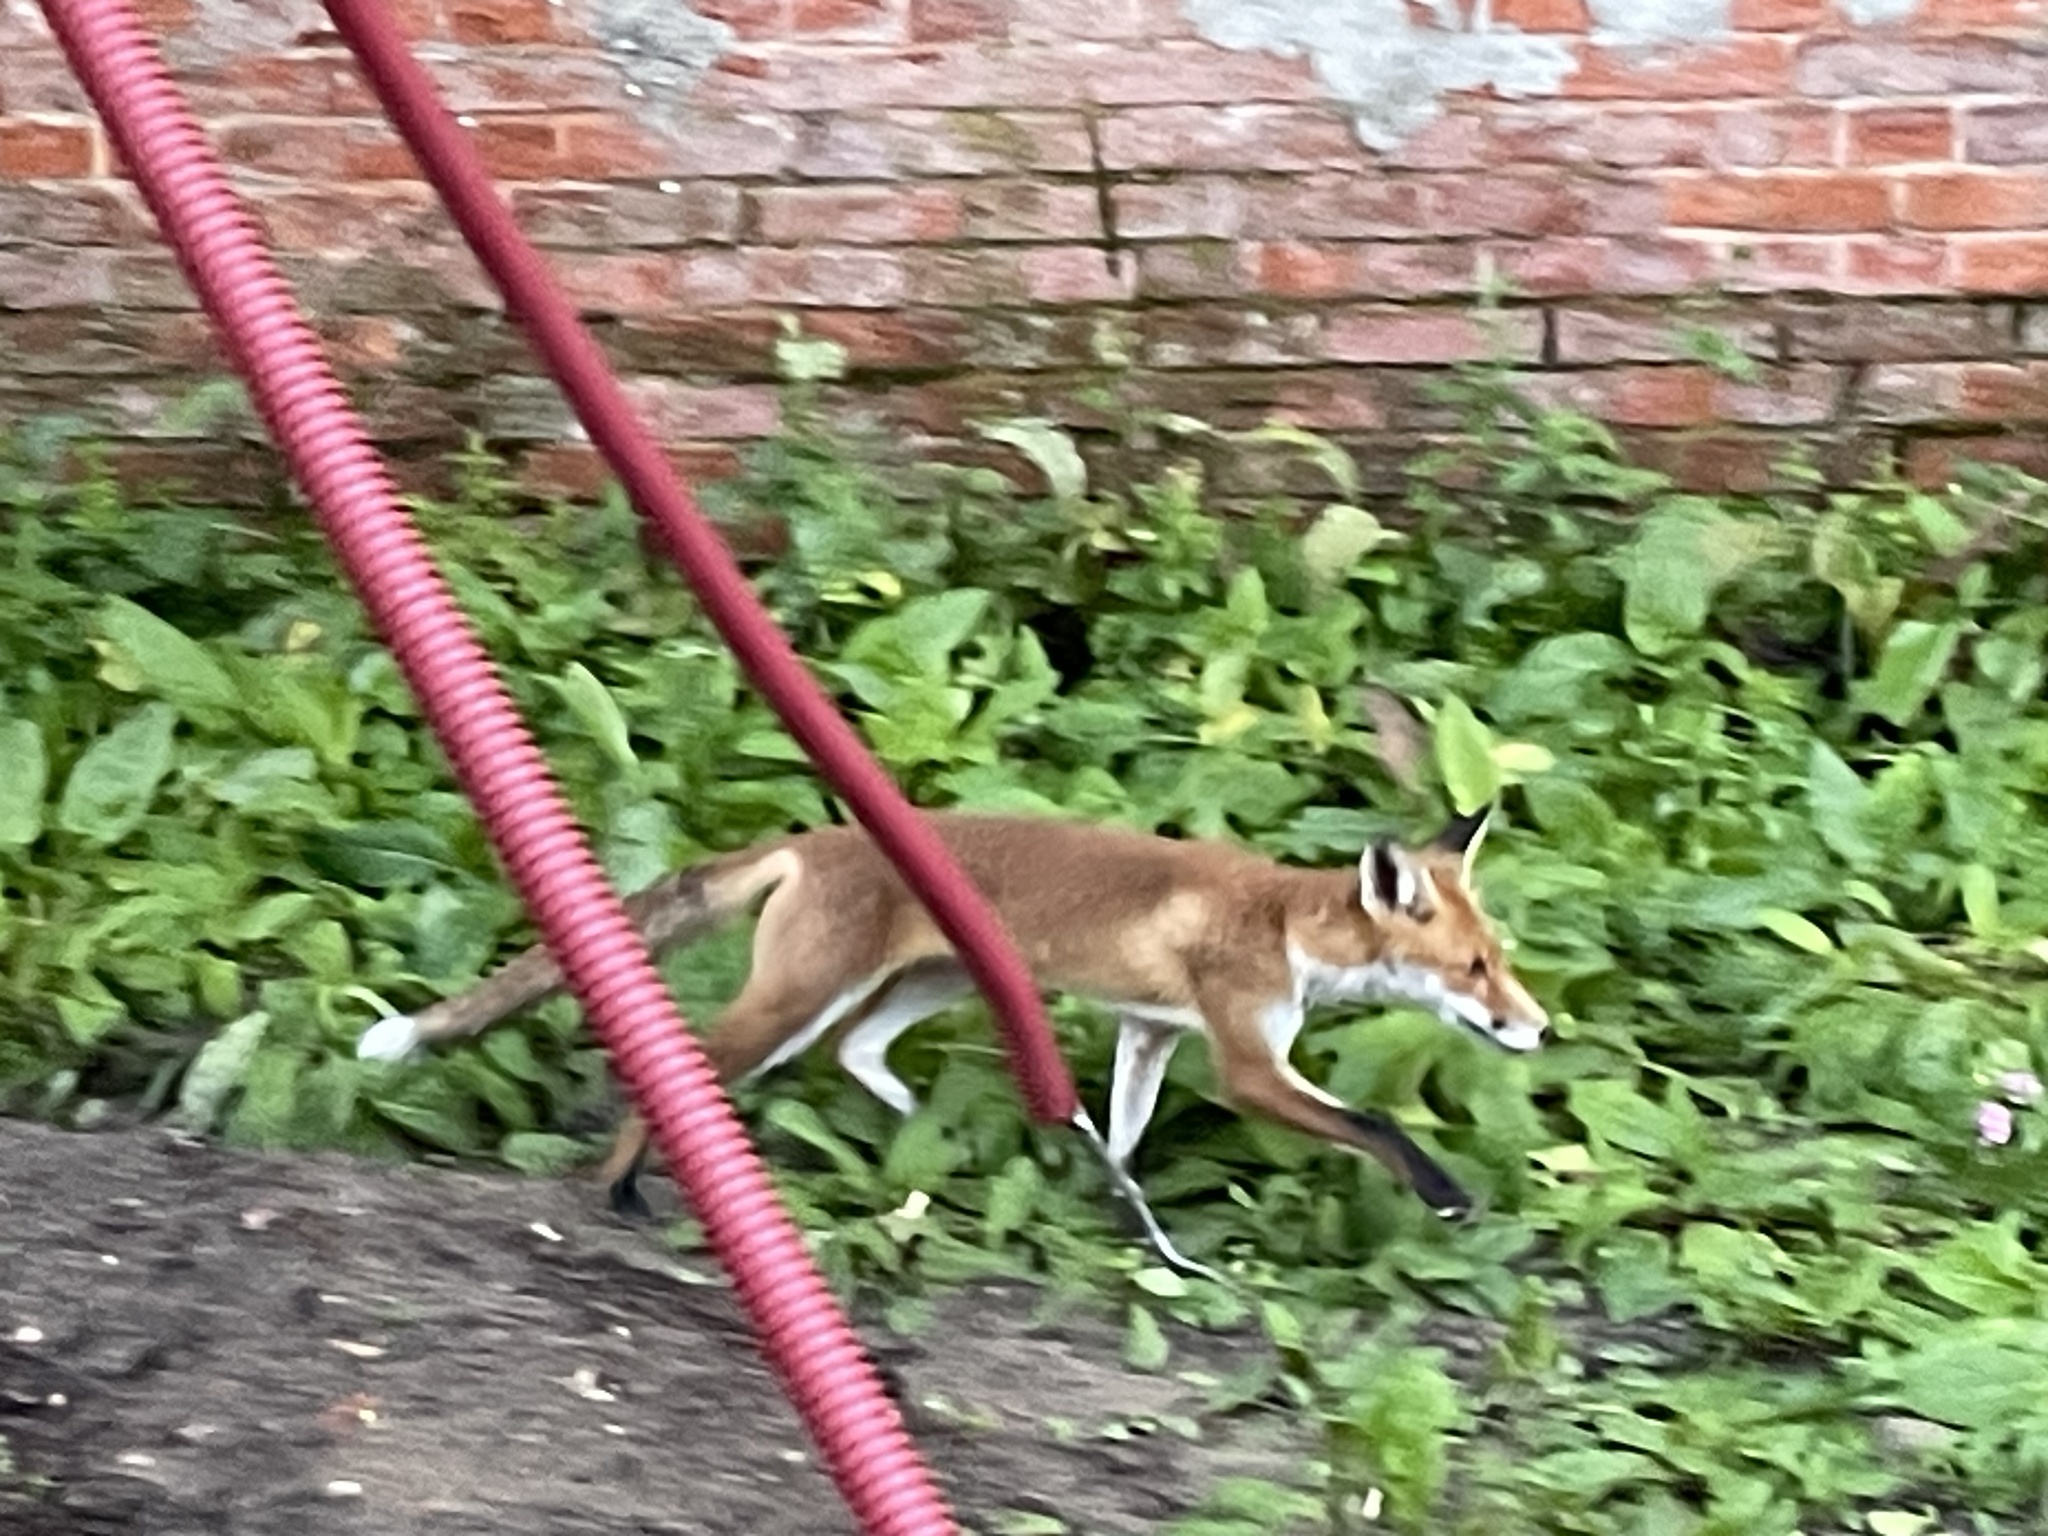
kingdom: Animalia
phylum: Chordata
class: Mammalia
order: Carnivora
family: Canidae
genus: Vulpes
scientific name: Vulpes vulpes
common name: Red fox
